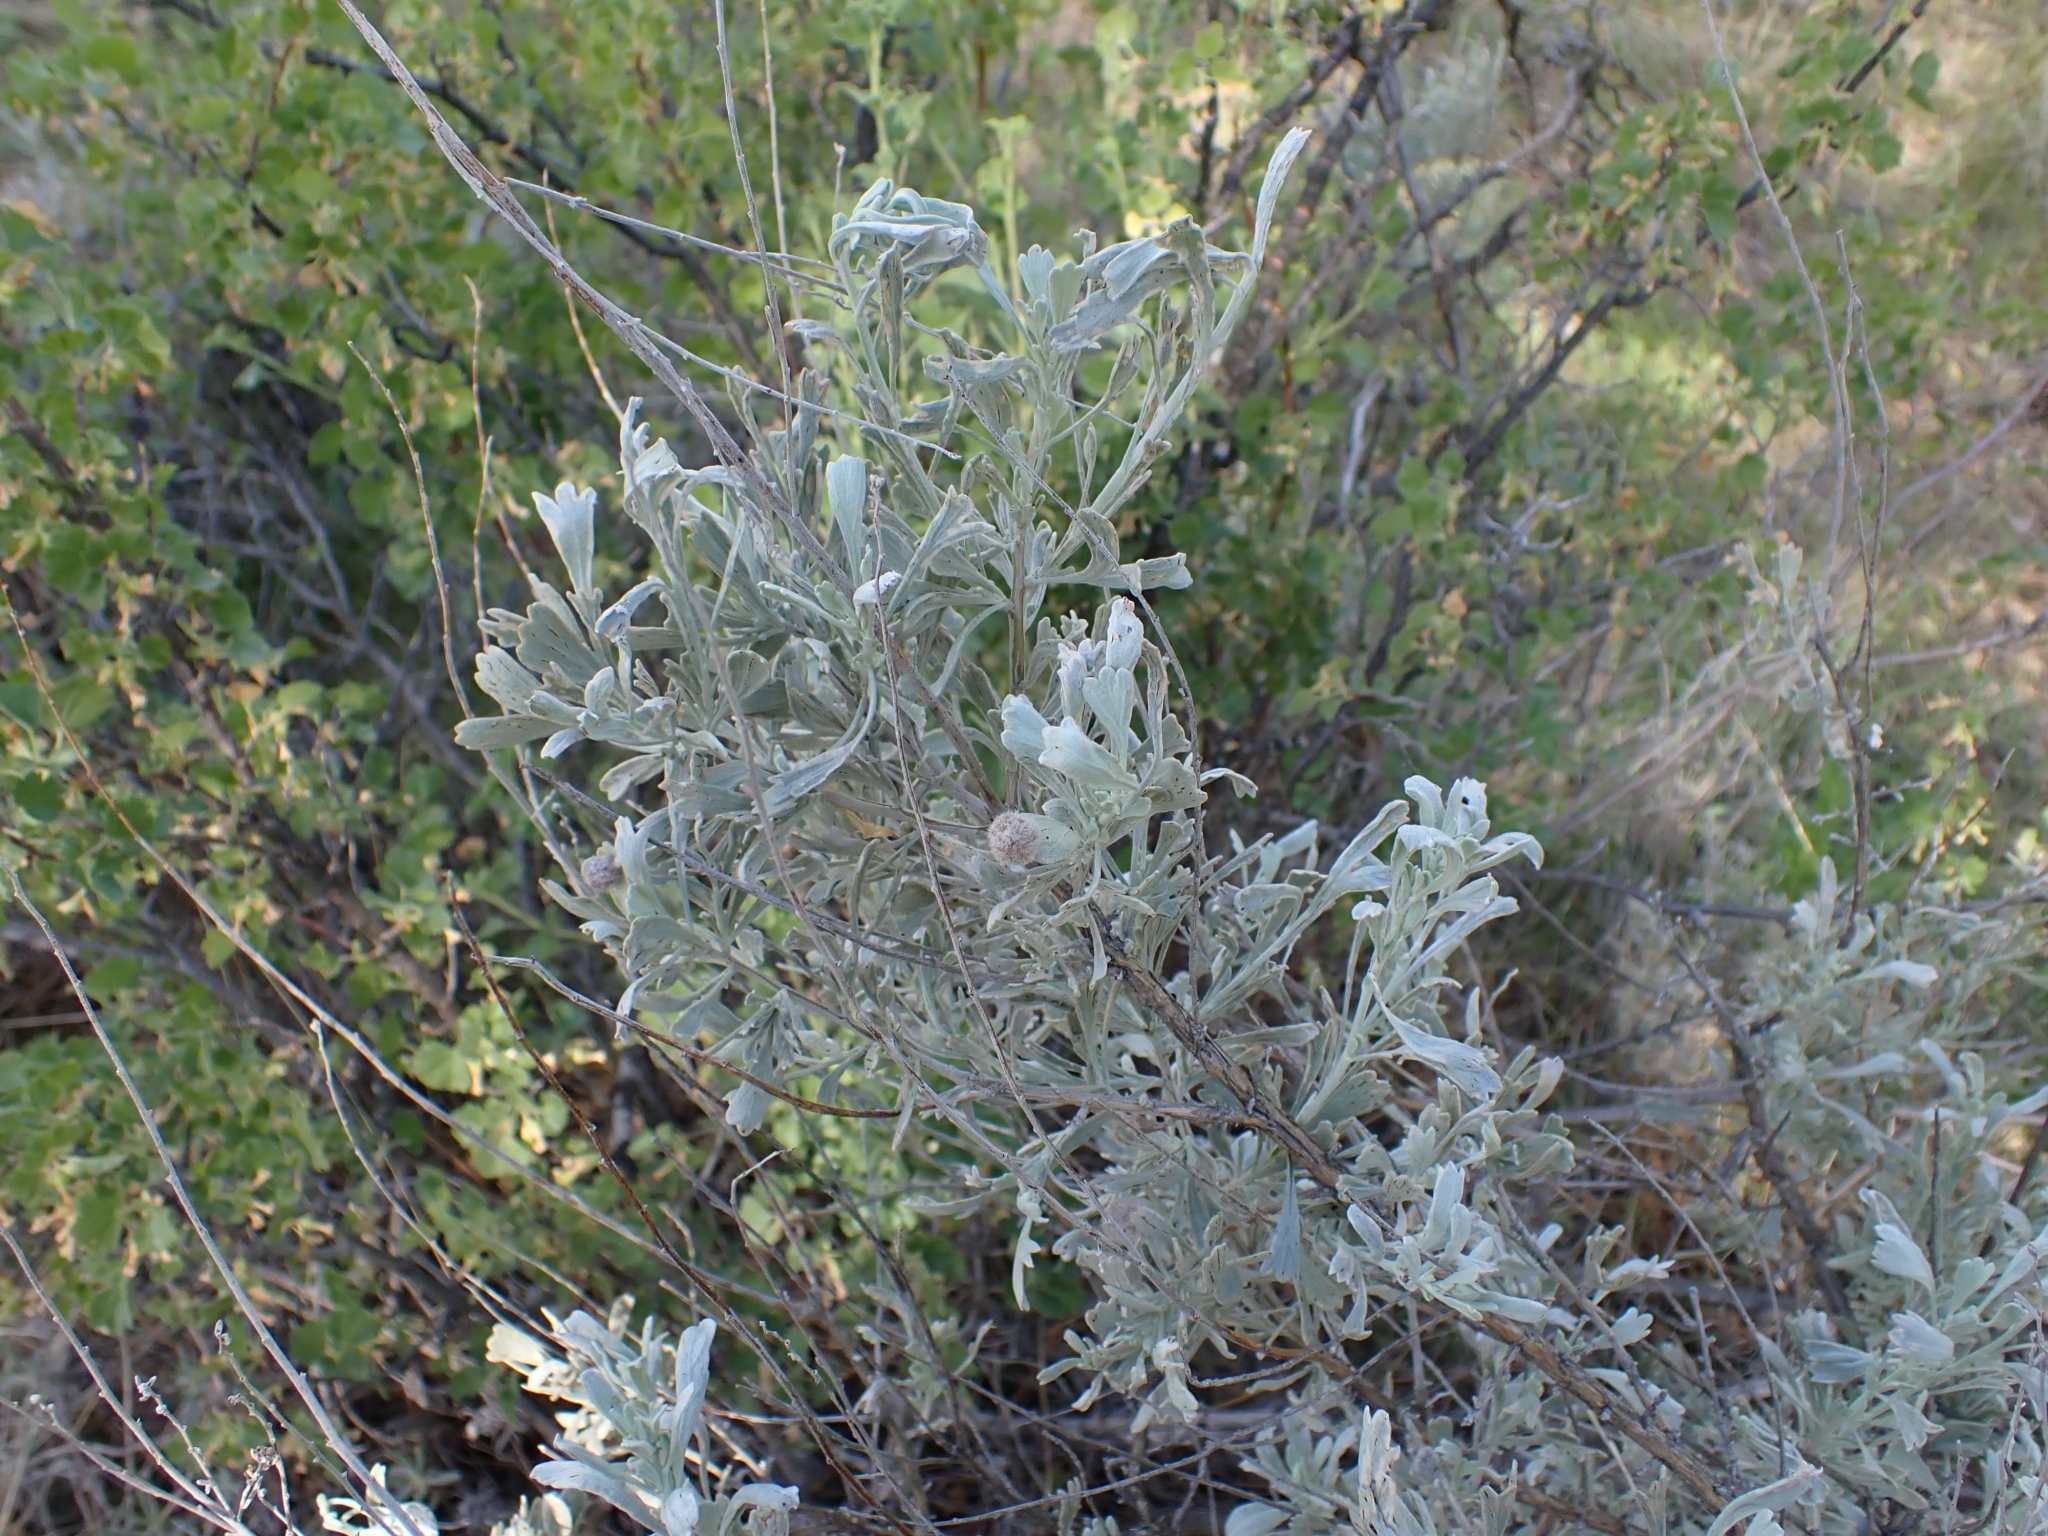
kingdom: Plantae
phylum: Tracheophyta
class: Magnoliopsida
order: Asterales
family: Asteraceae
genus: Artemisia
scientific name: Artemisia tridentata
